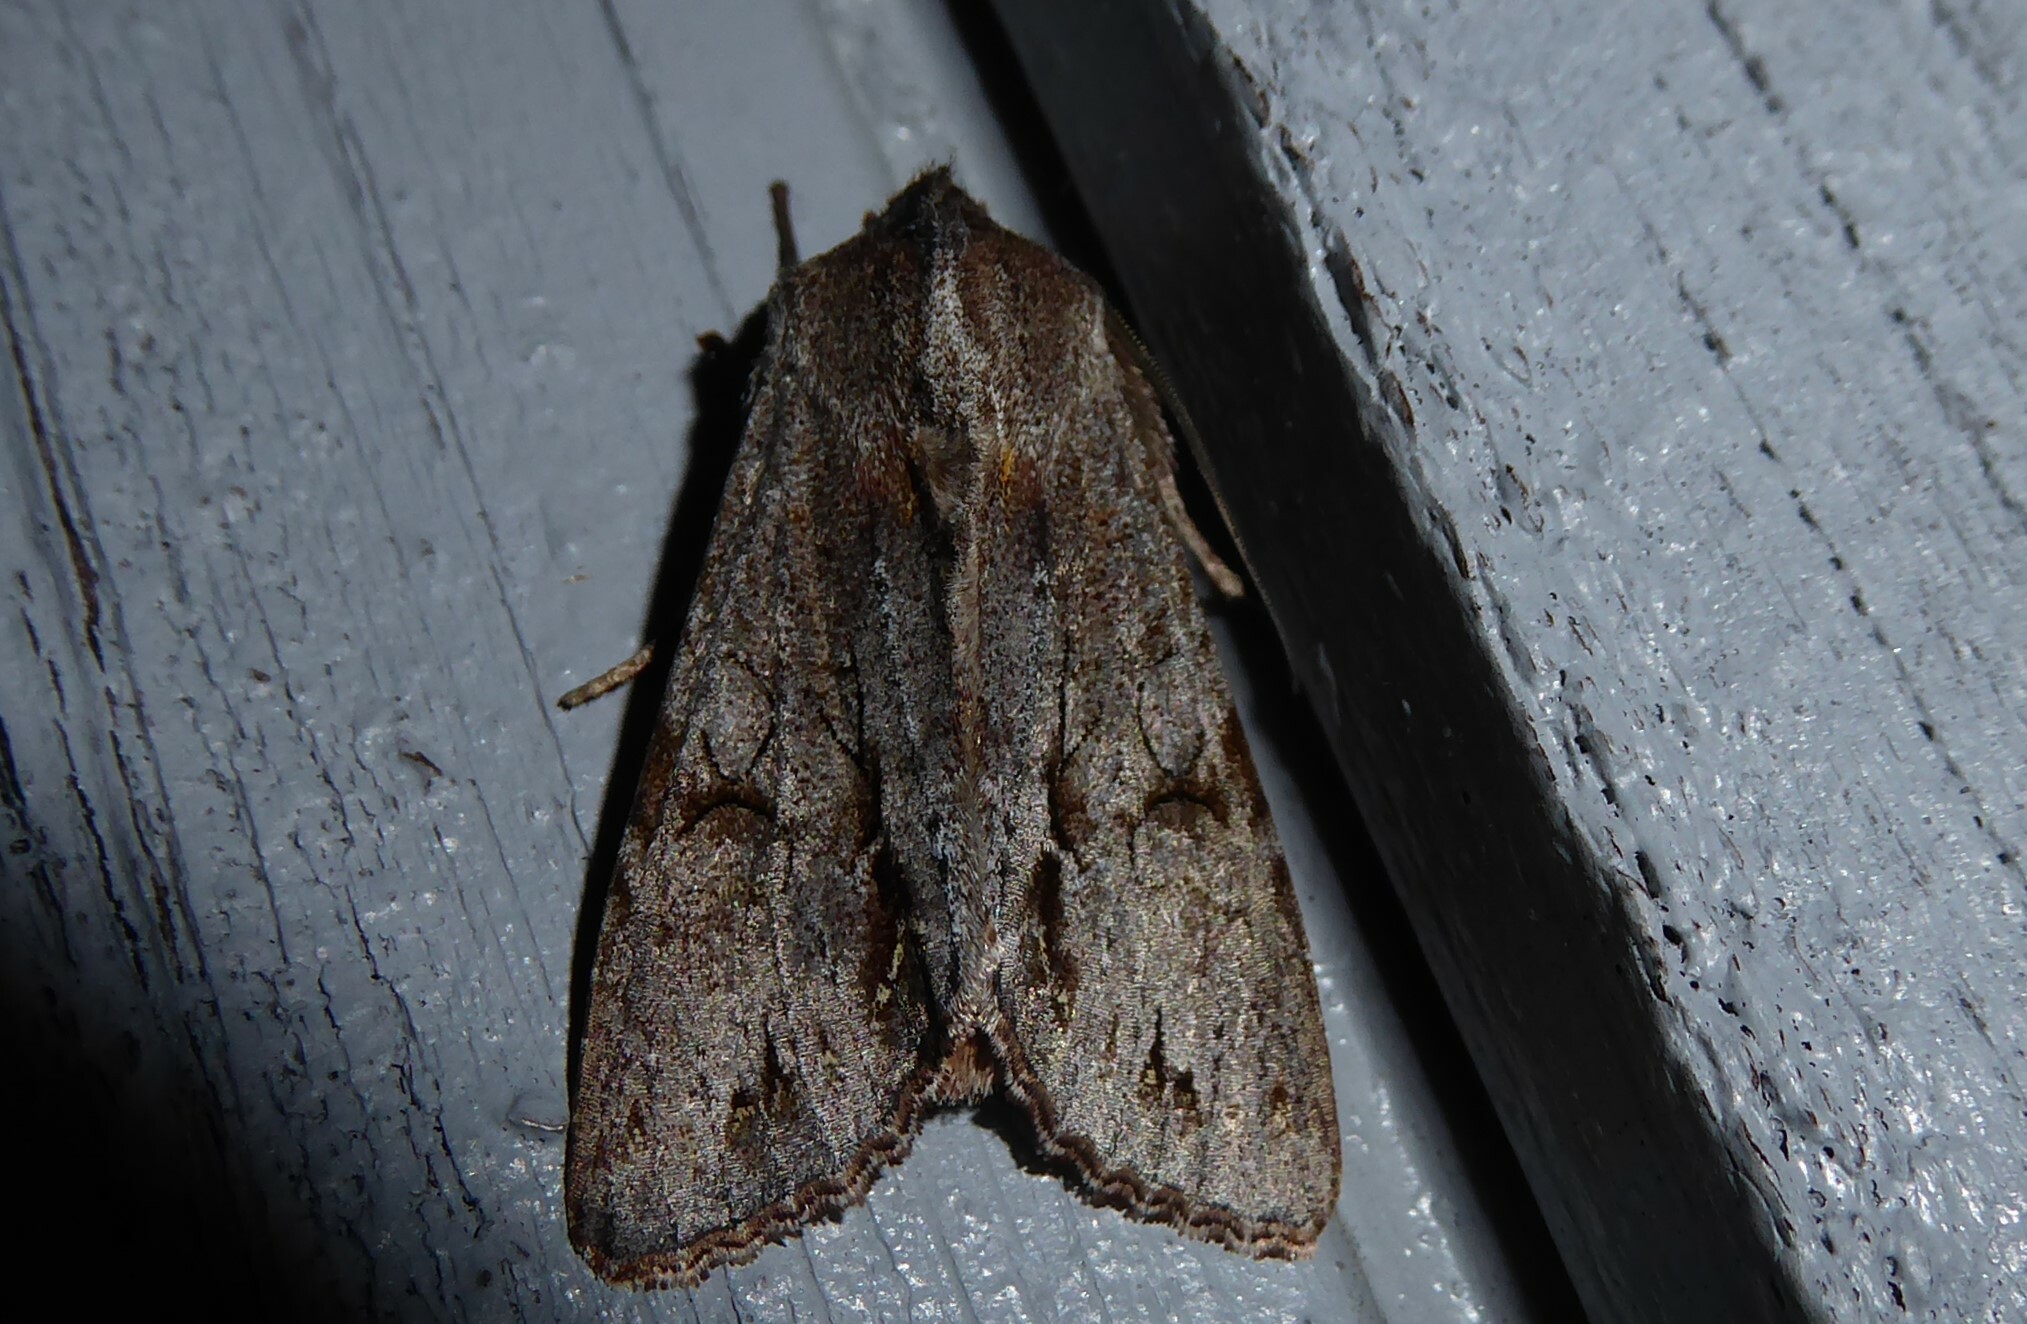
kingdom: Animalia
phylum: Arthropoda
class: Insecta
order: Lepidoptera
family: Noctuidae
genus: Ichneutica
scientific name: Ichneutica
